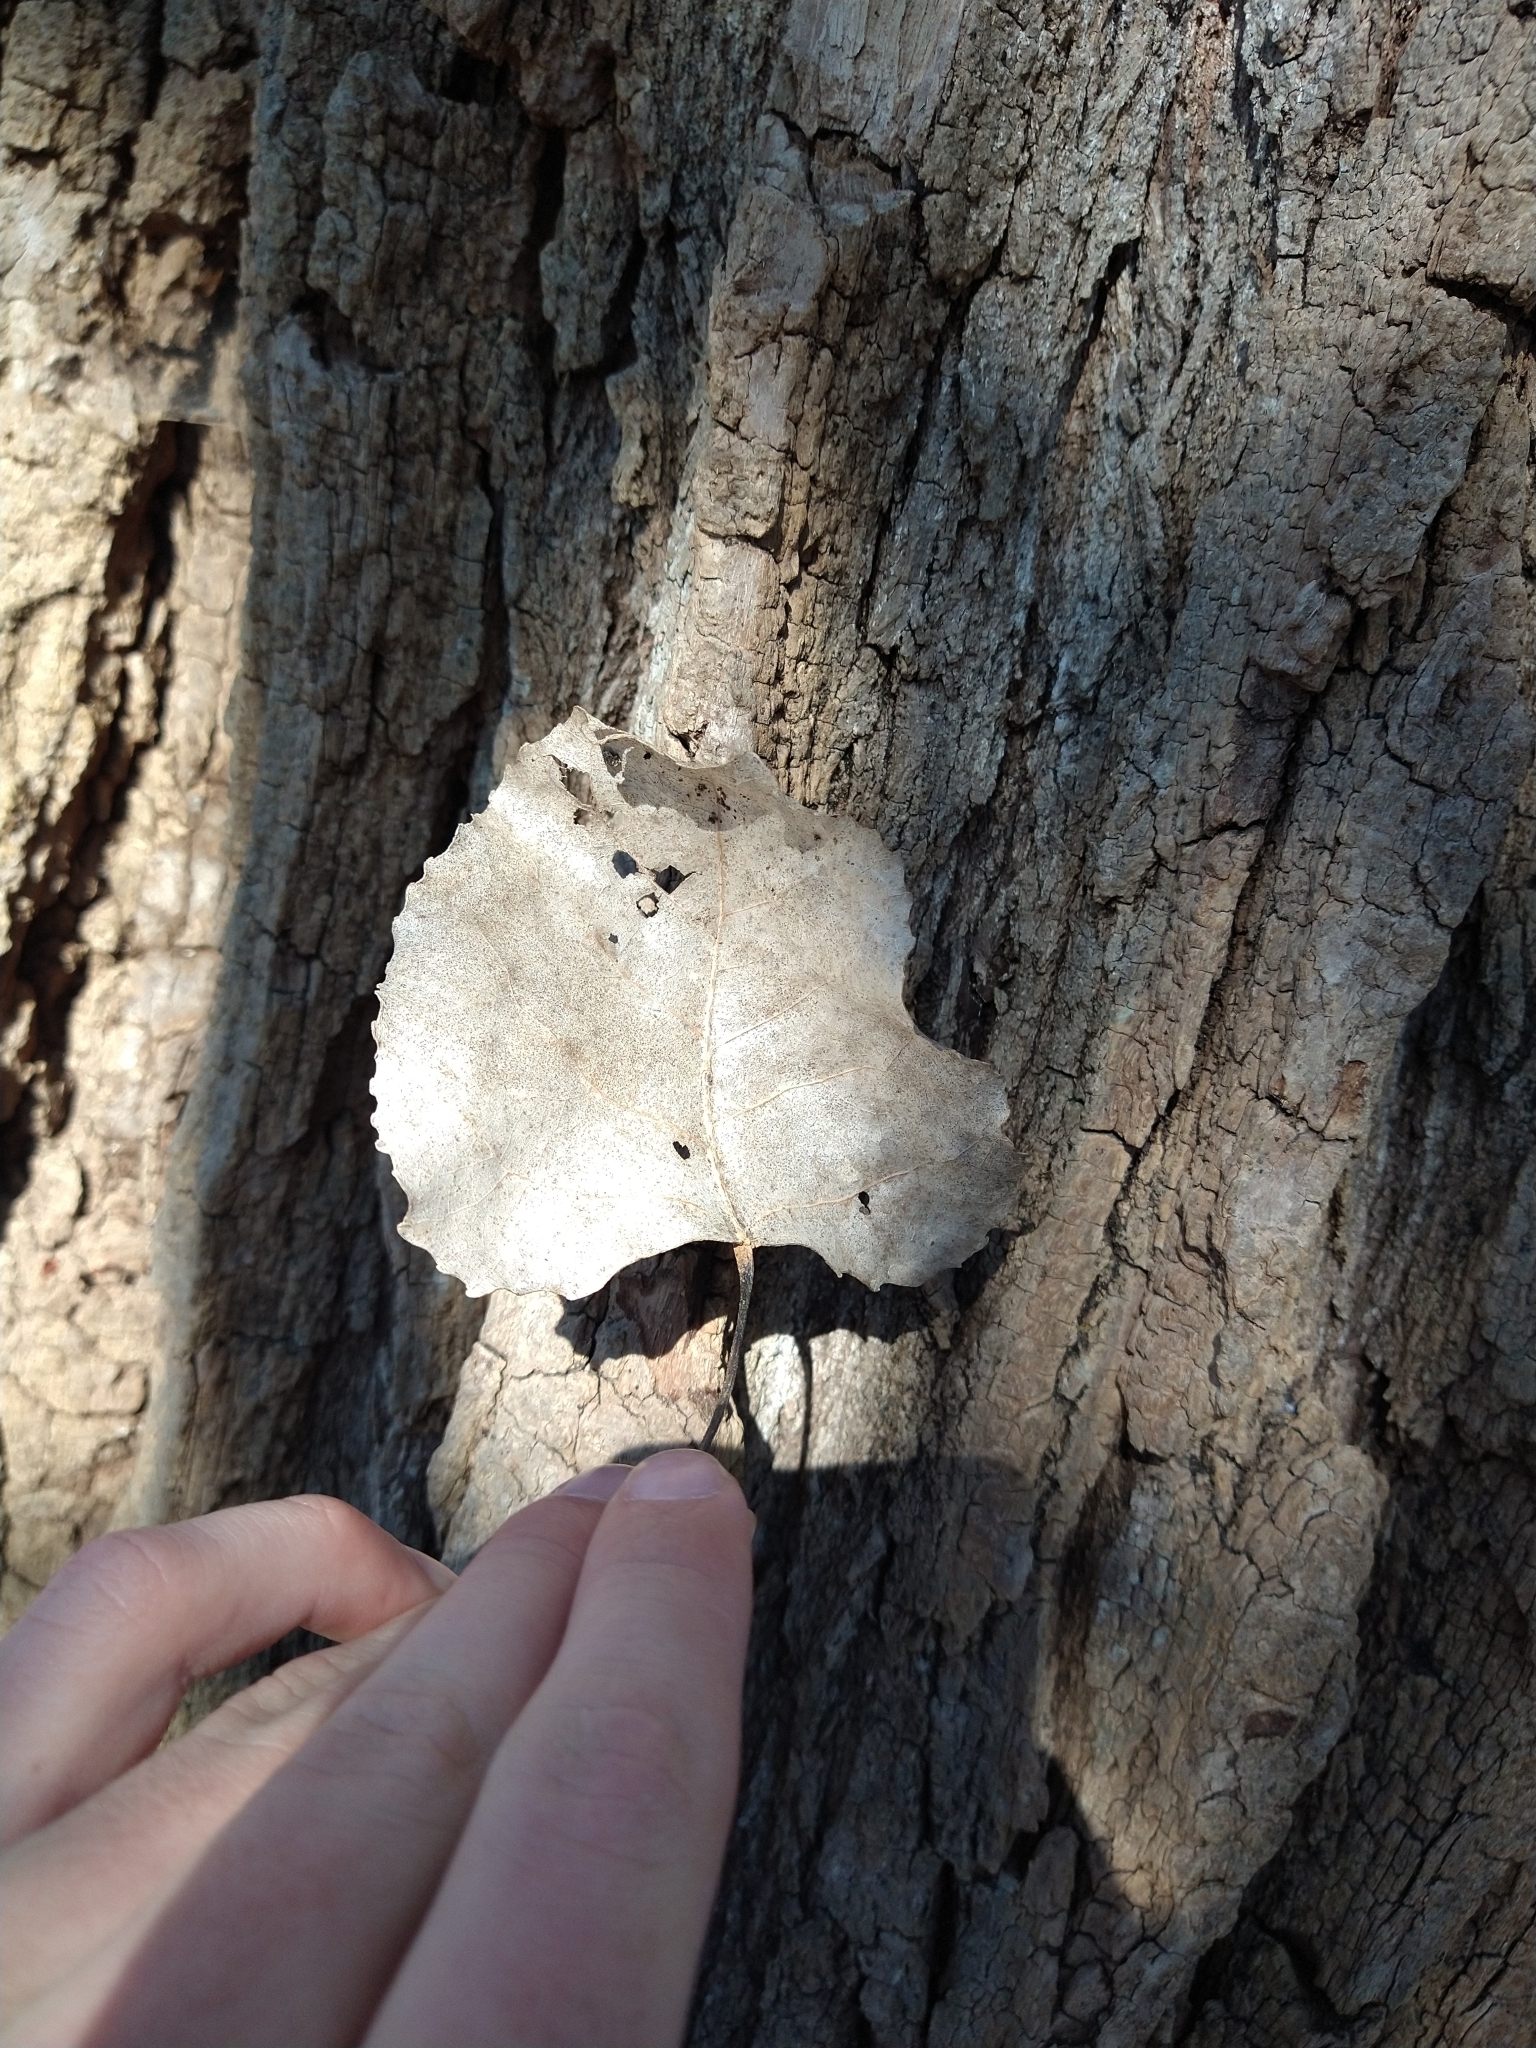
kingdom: Plantae
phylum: Tracheophyta
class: Magnoliopsida
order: Malpighiales
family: Salicaceae
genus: Populus
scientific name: Populus deltoides
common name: Eastern cottonwood
